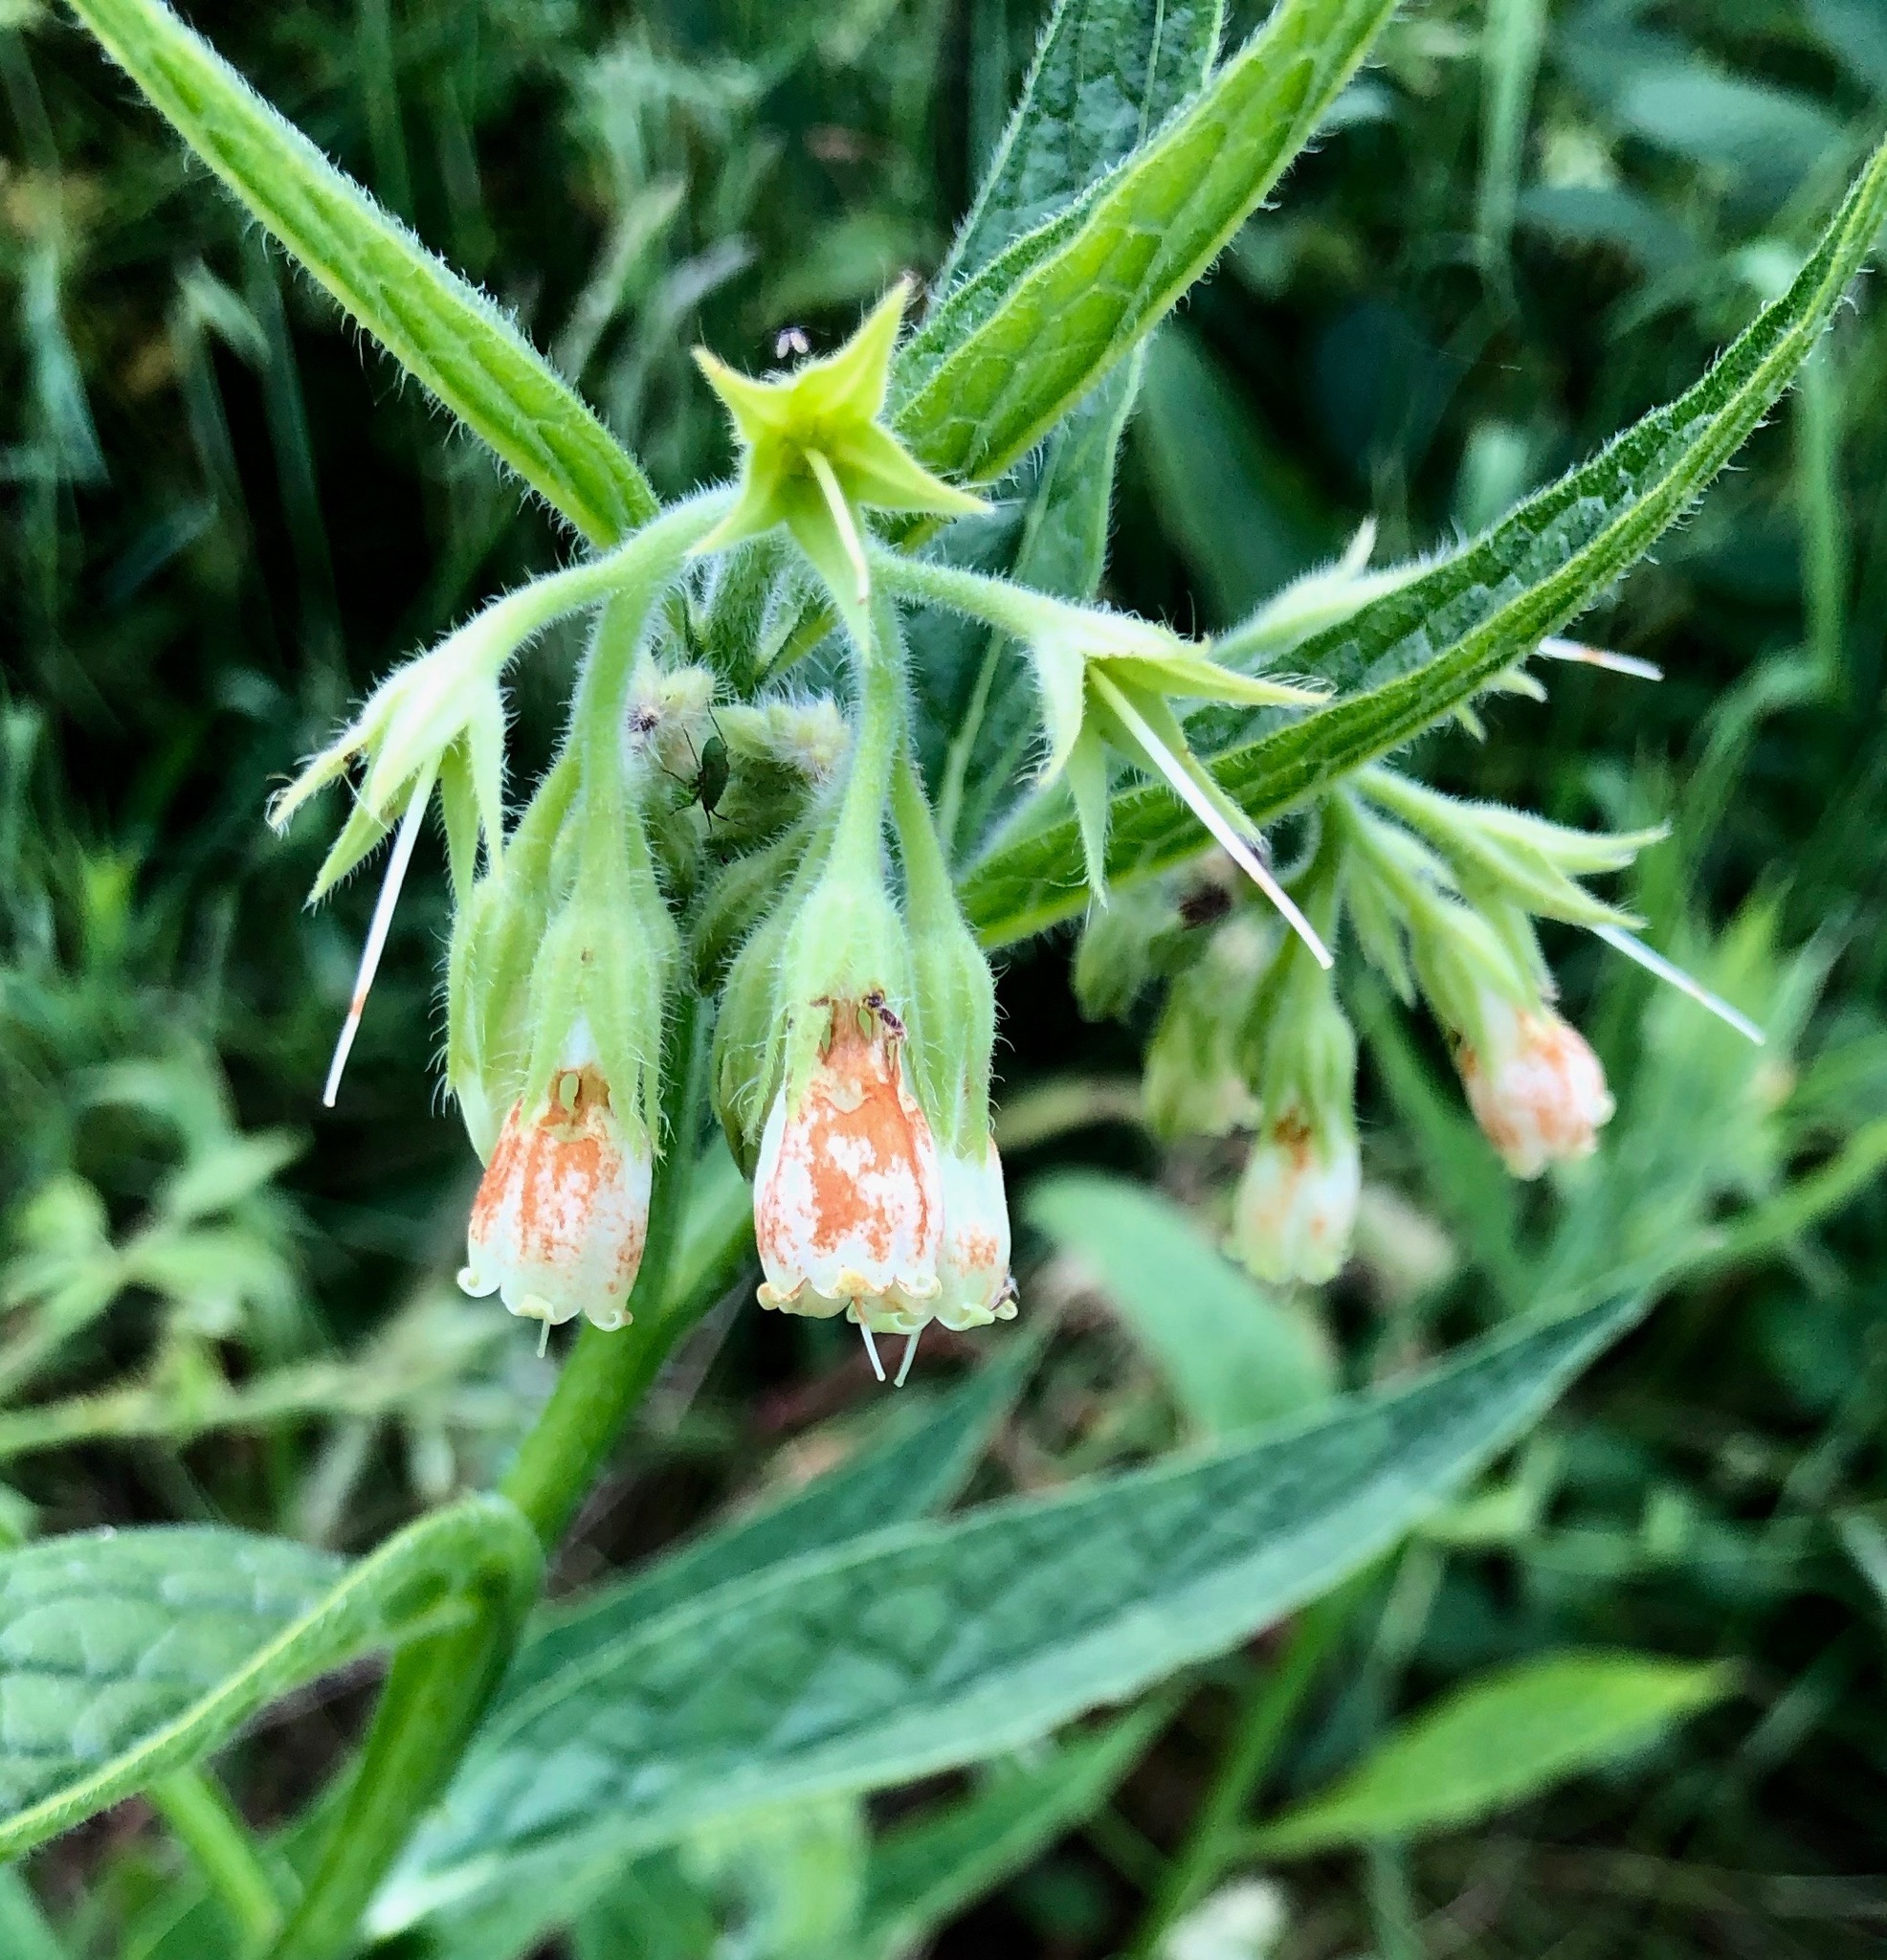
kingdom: Plantae
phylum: Tracheophyta
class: Magnoliopsida
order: Boraginales
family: Boraginaceae
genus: Symphytum
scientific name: Symphytum officinale
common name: Common comfrey
